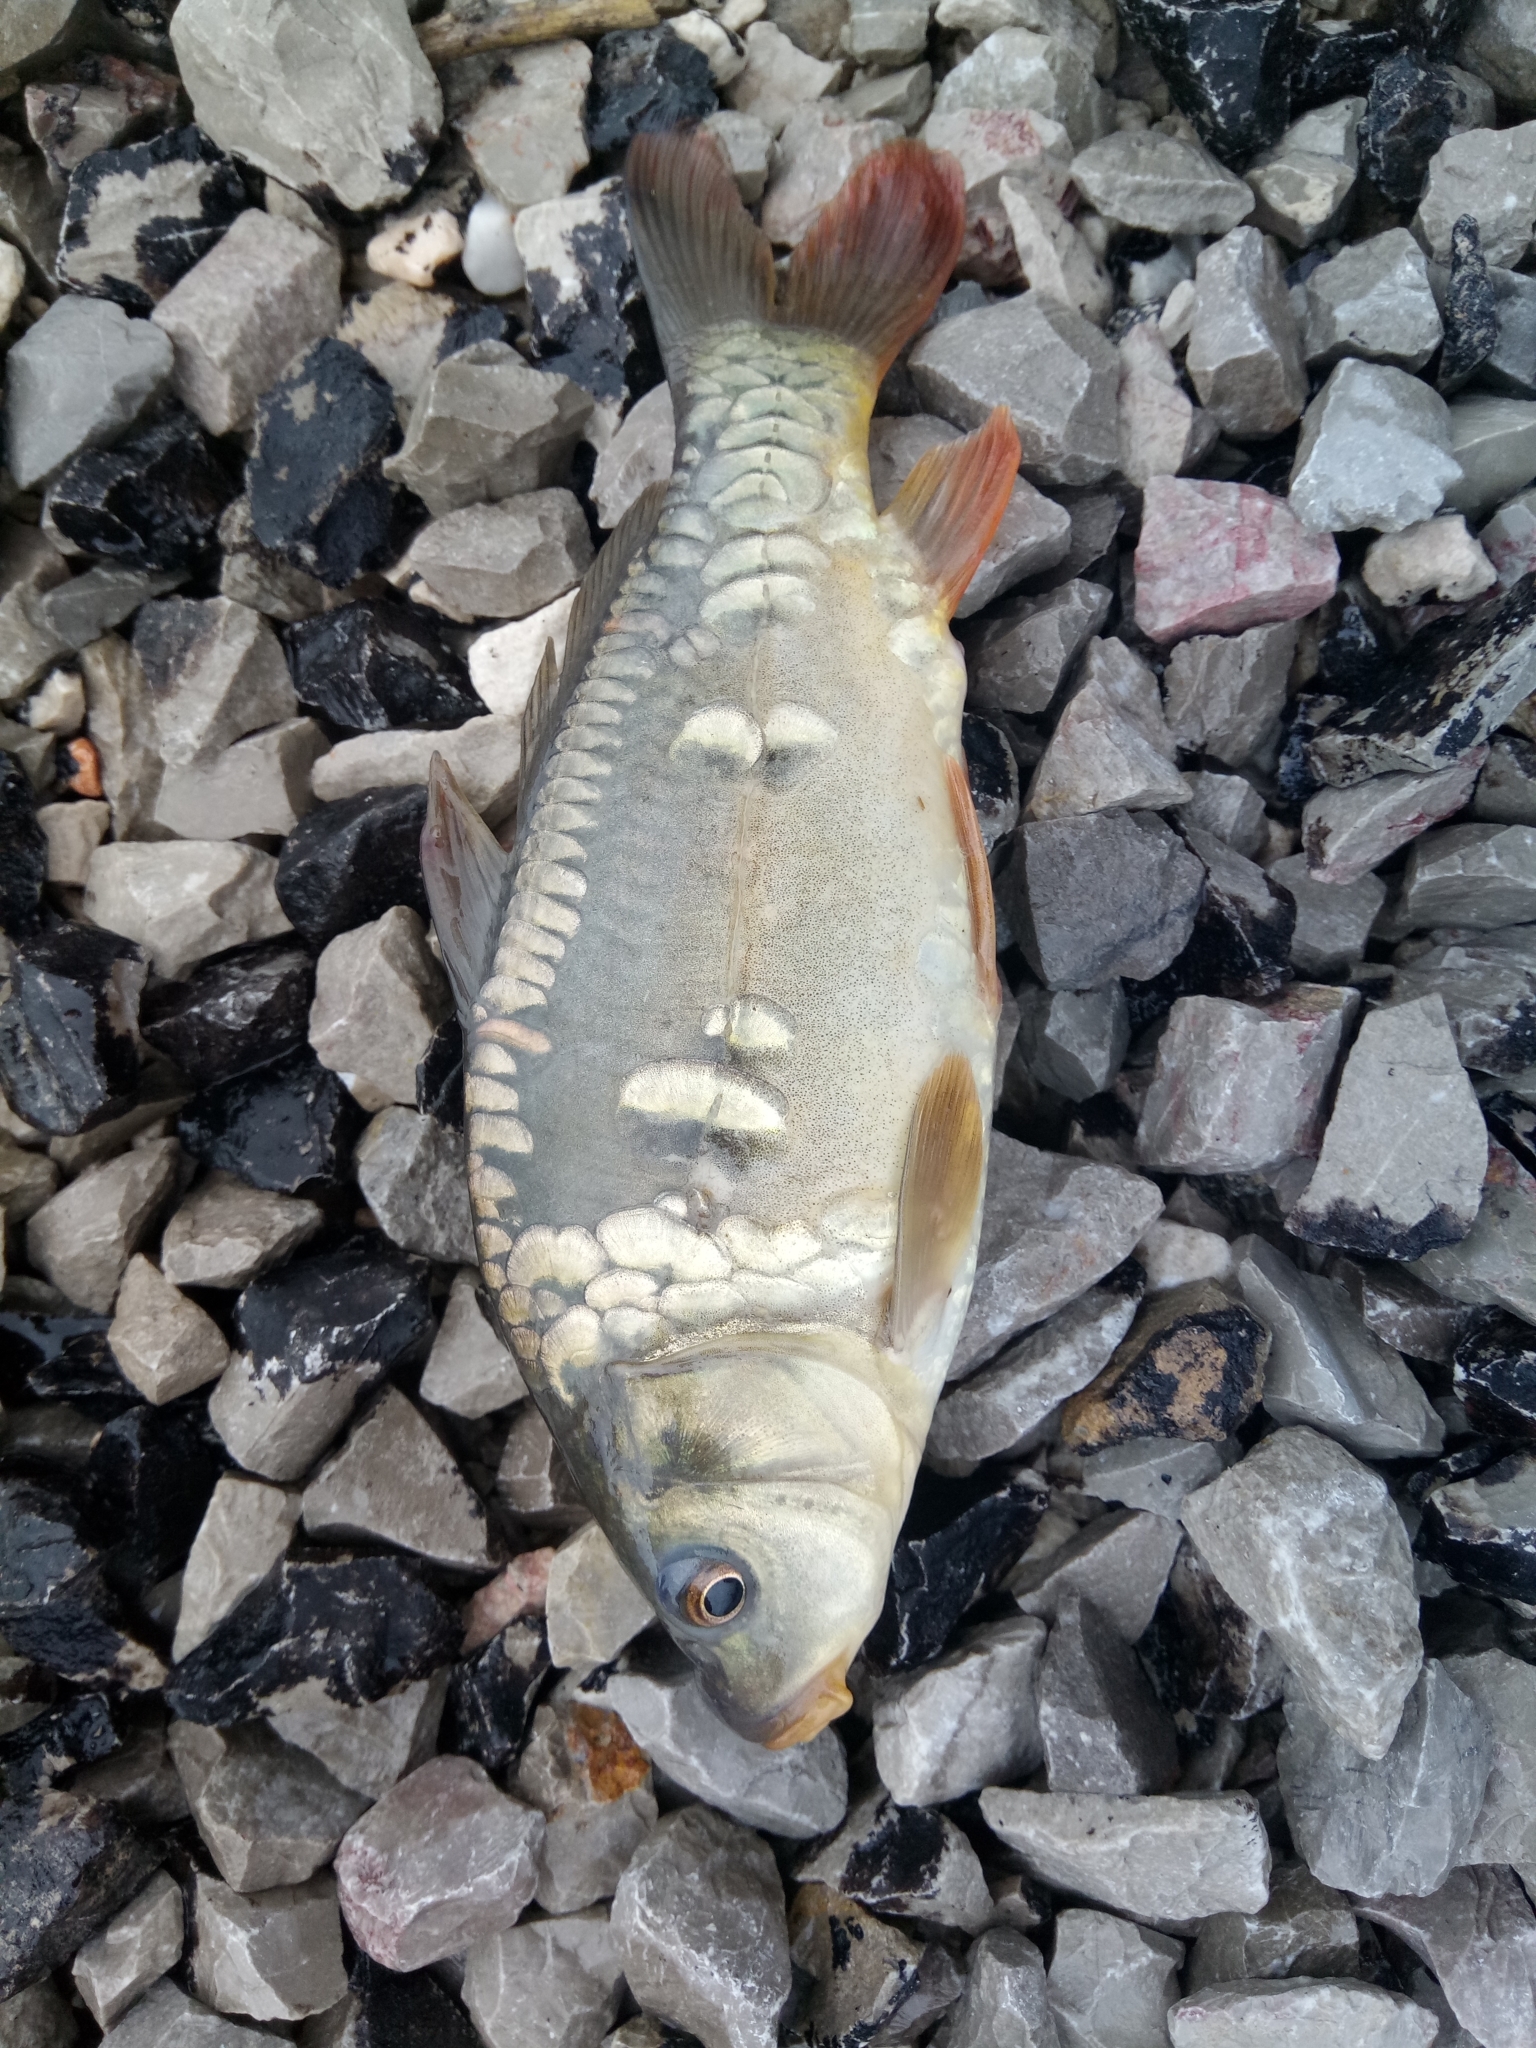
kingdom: Animalia
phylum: Chordata
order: Cypriniformes
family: Cyprinidae
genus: Cyprinus
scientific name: Cyprinus carpio
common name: Common carp
